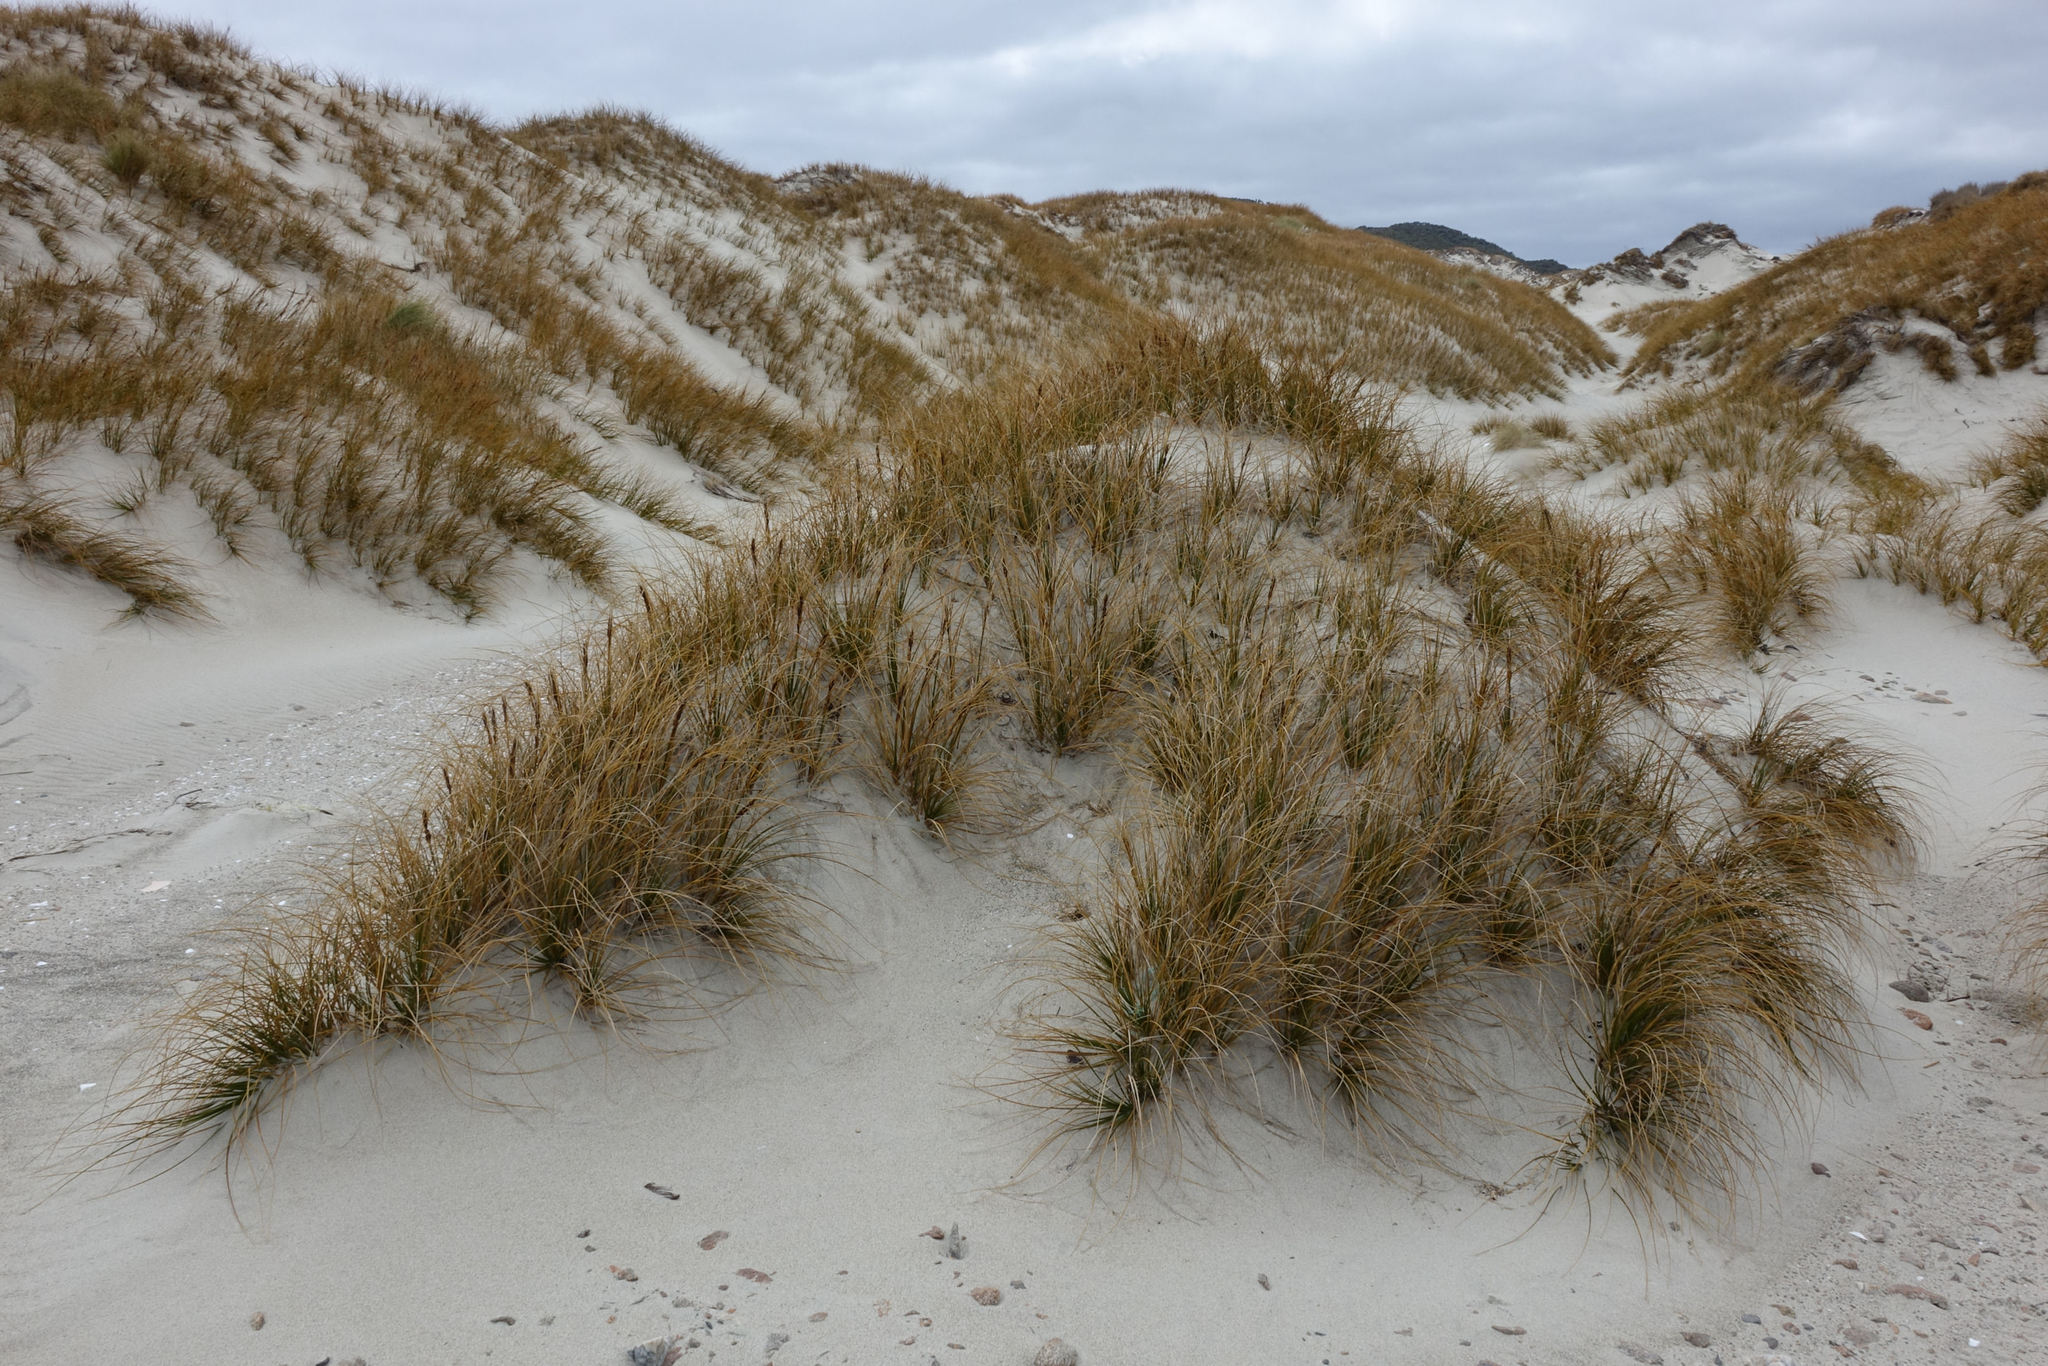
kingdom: Plantae
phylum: Tracheophyta
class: Liliopsida
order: Poales
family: Cyperaceae
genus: Ficinia
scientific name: Ficinia spiralis
